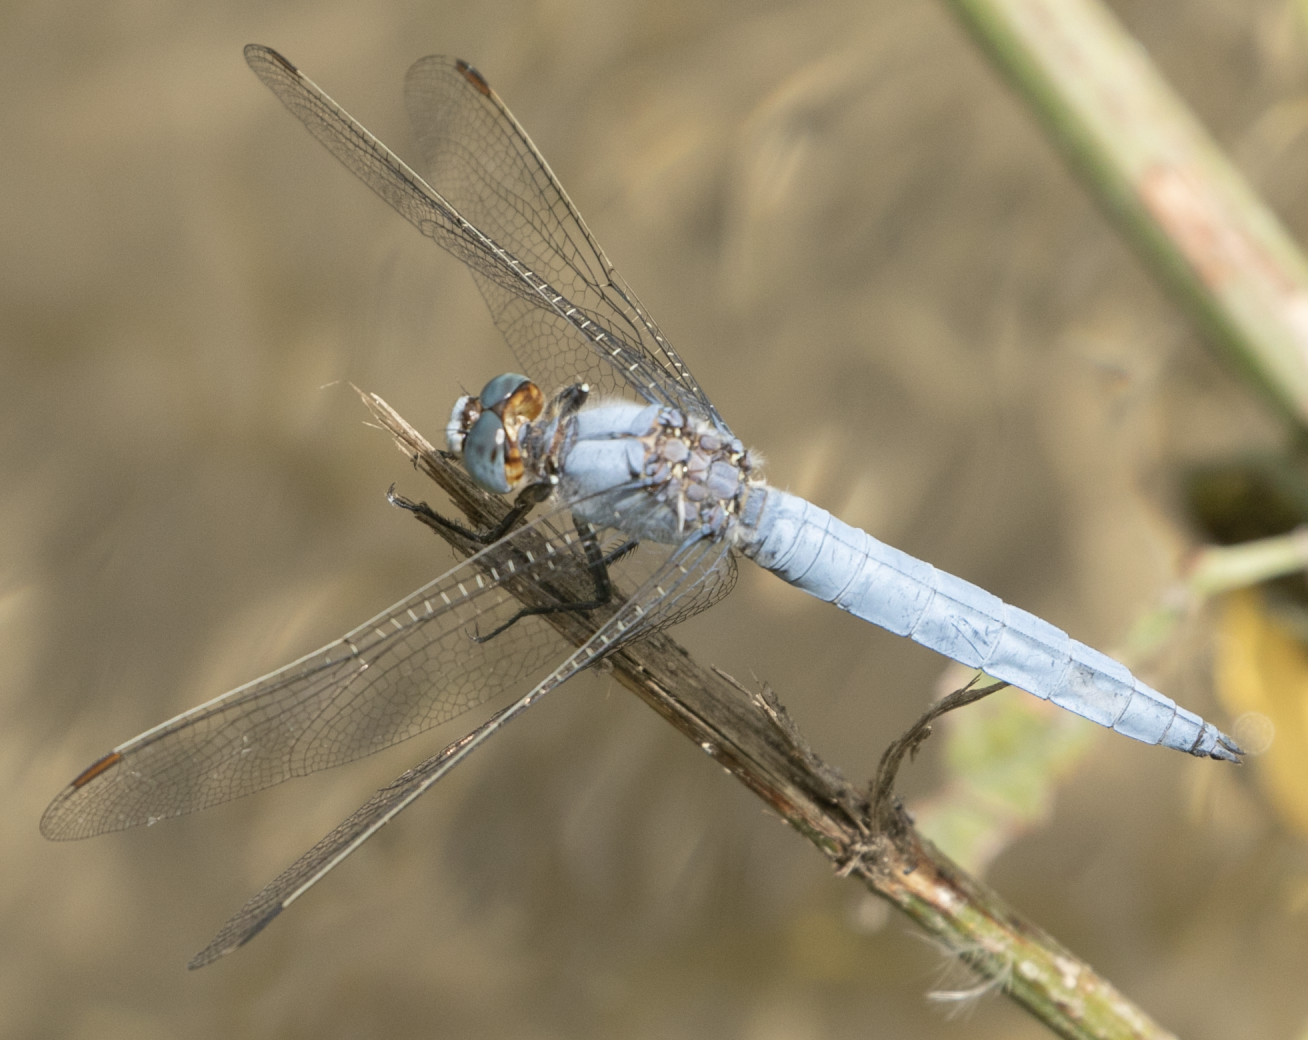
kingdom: Animalia
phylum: Arthropoda
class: Insecta
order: Odonata
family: Libellulidae
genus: Orthetrum
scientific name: Orthetrum brunneum
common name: Southern skimmer
